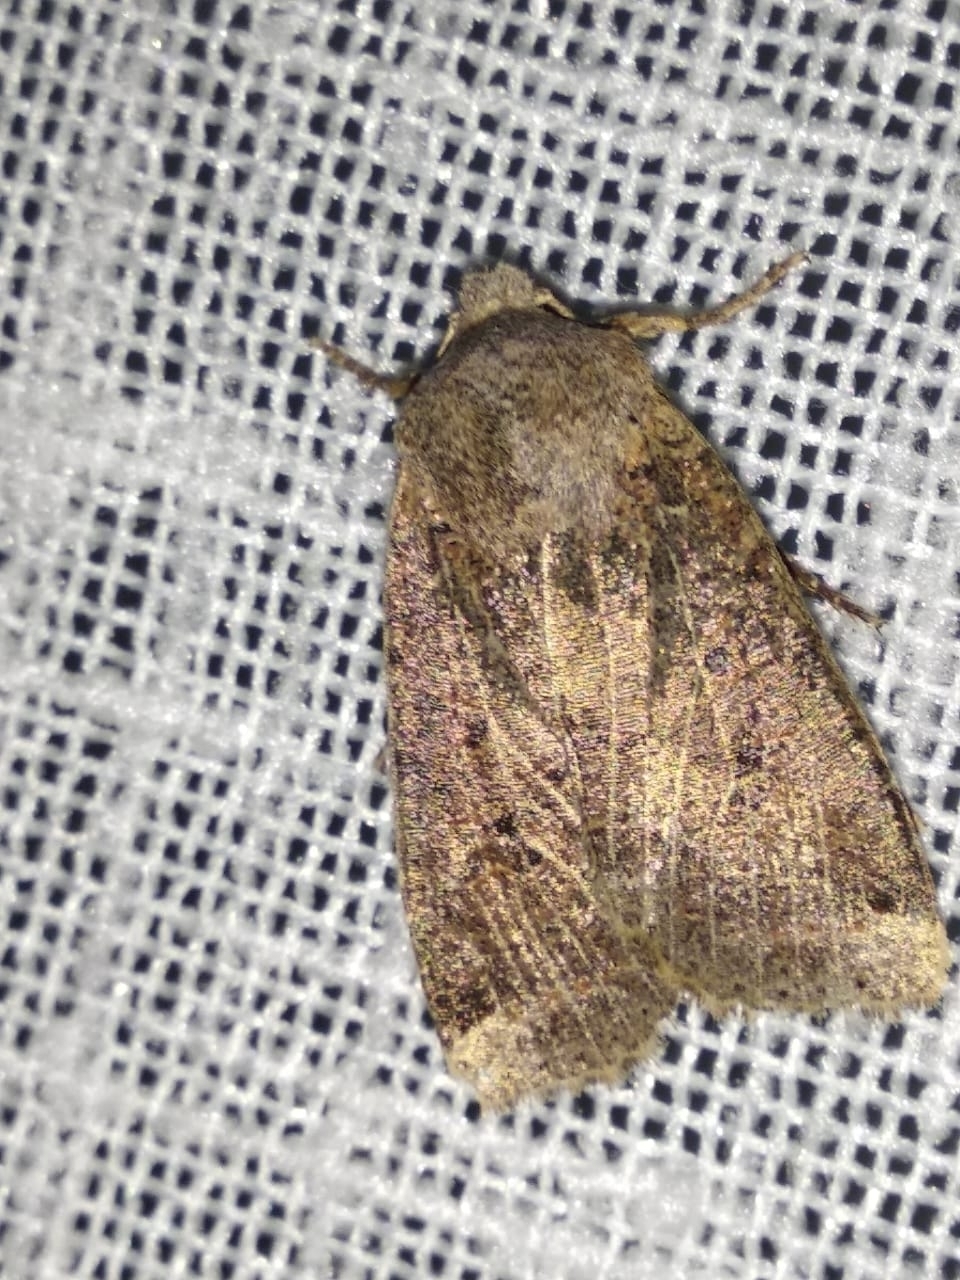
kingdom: Animalia
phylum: Arthropoda
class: Insecta
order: Lepidoptera
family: Noctuidae
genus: Conistra
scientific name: Conistra
